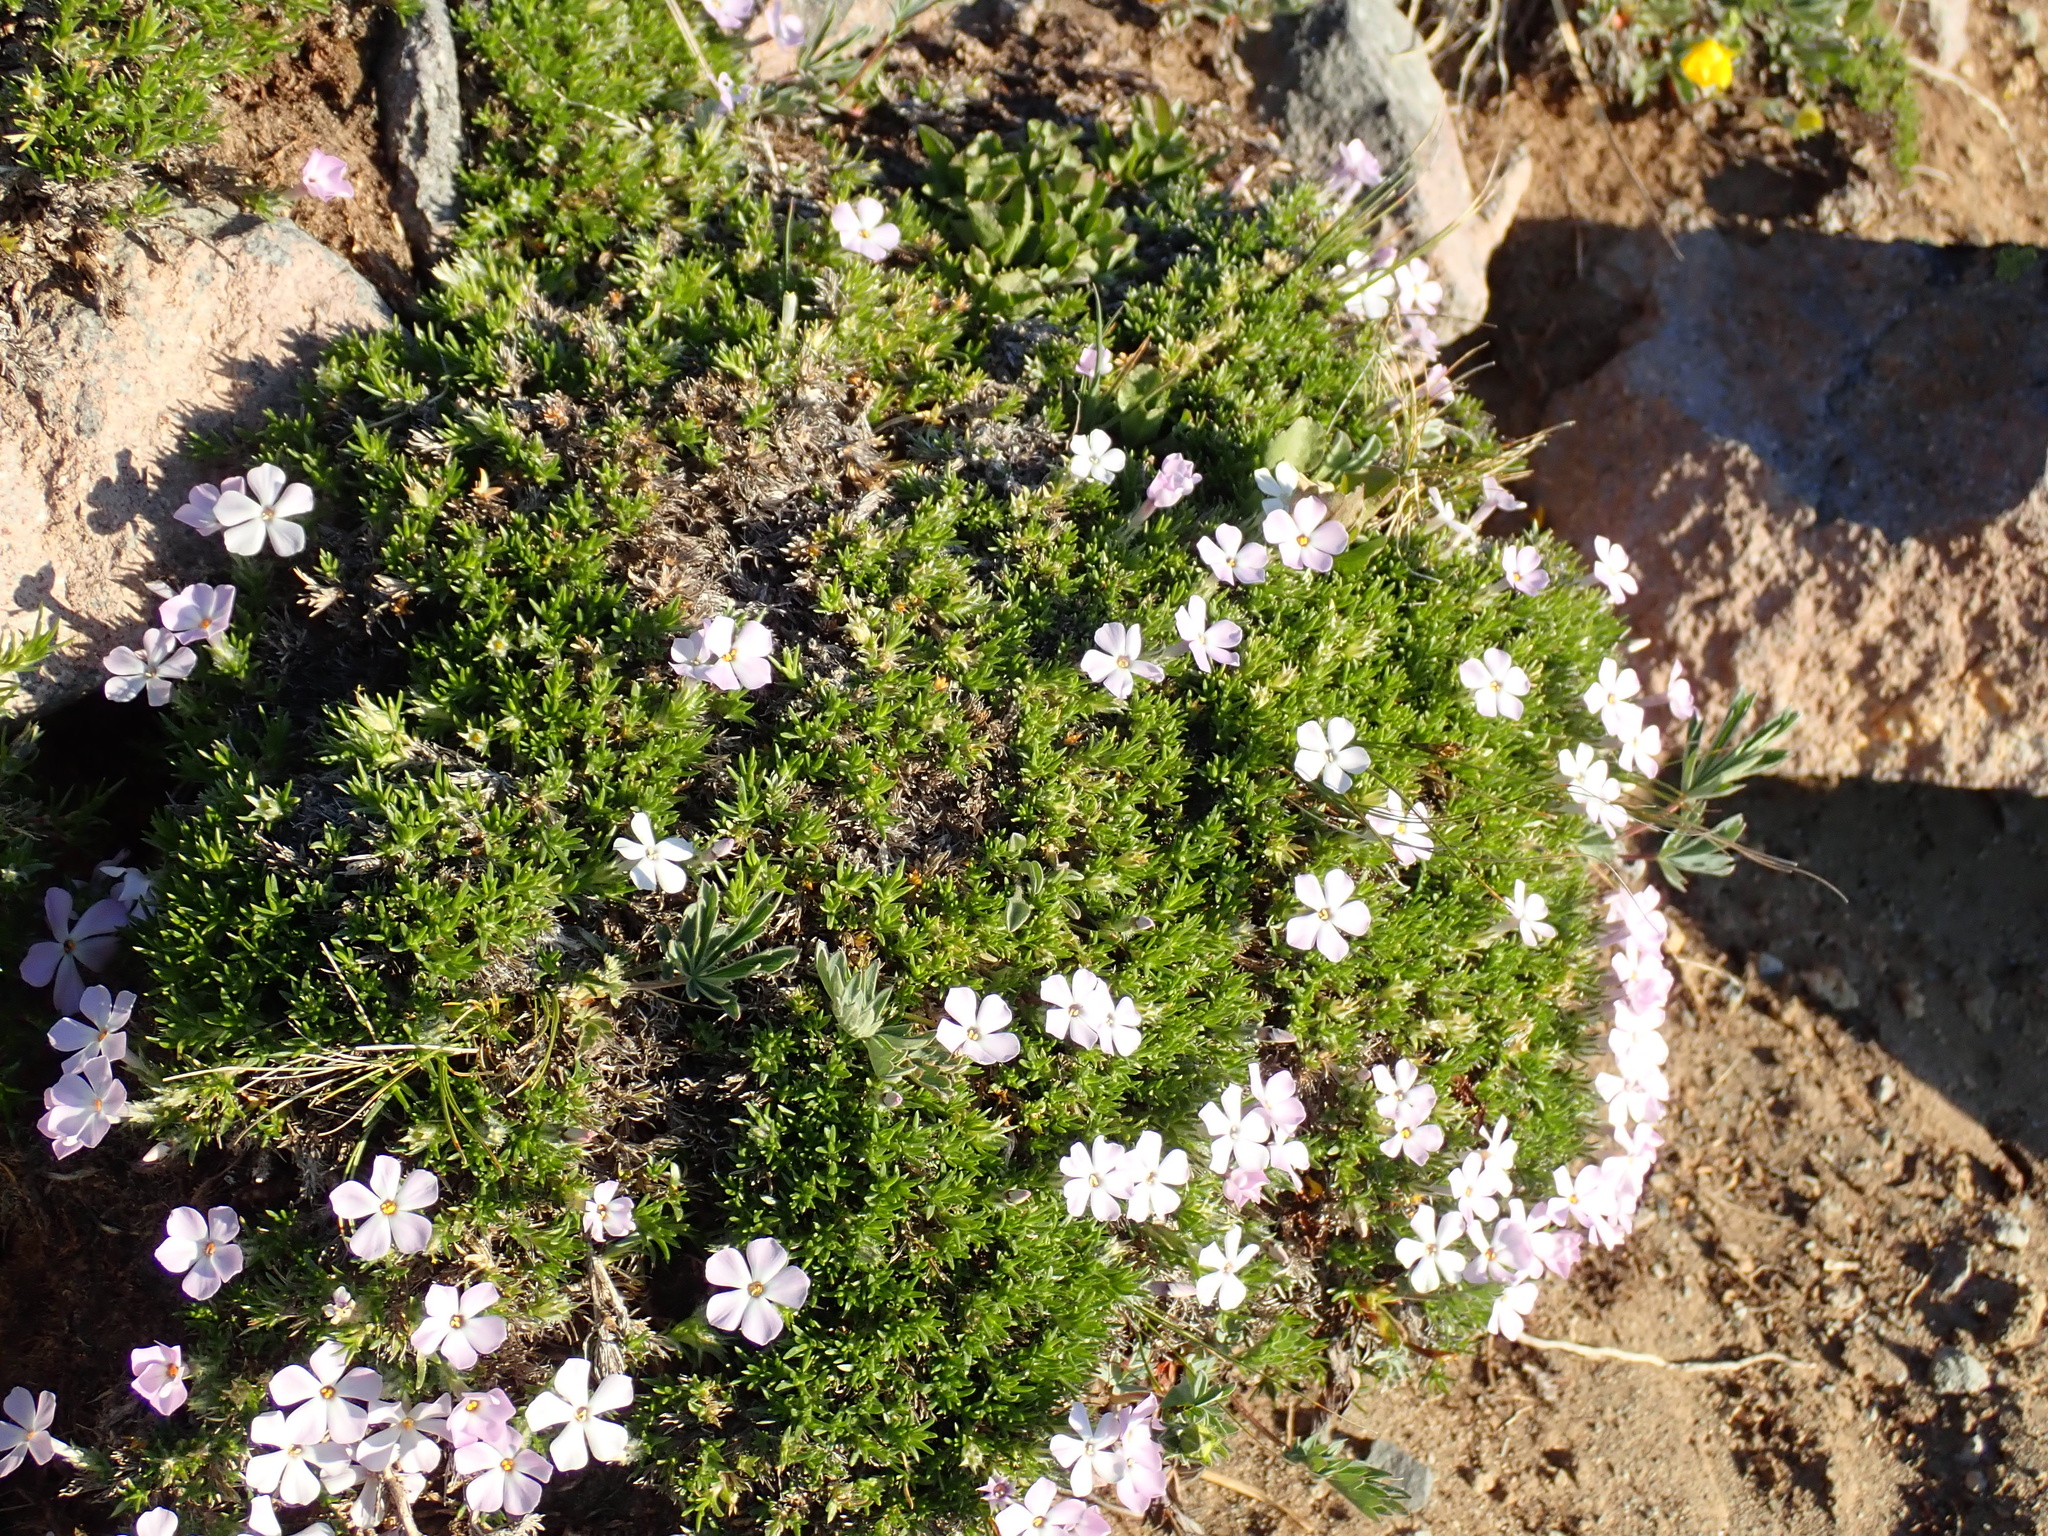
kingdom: Plantae
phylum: Tracheophyta
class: Magnoliopsida
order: Ericales
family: Polemoniaceae
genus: Phlox
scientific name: Phlox diffusa
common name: Mat phlox
